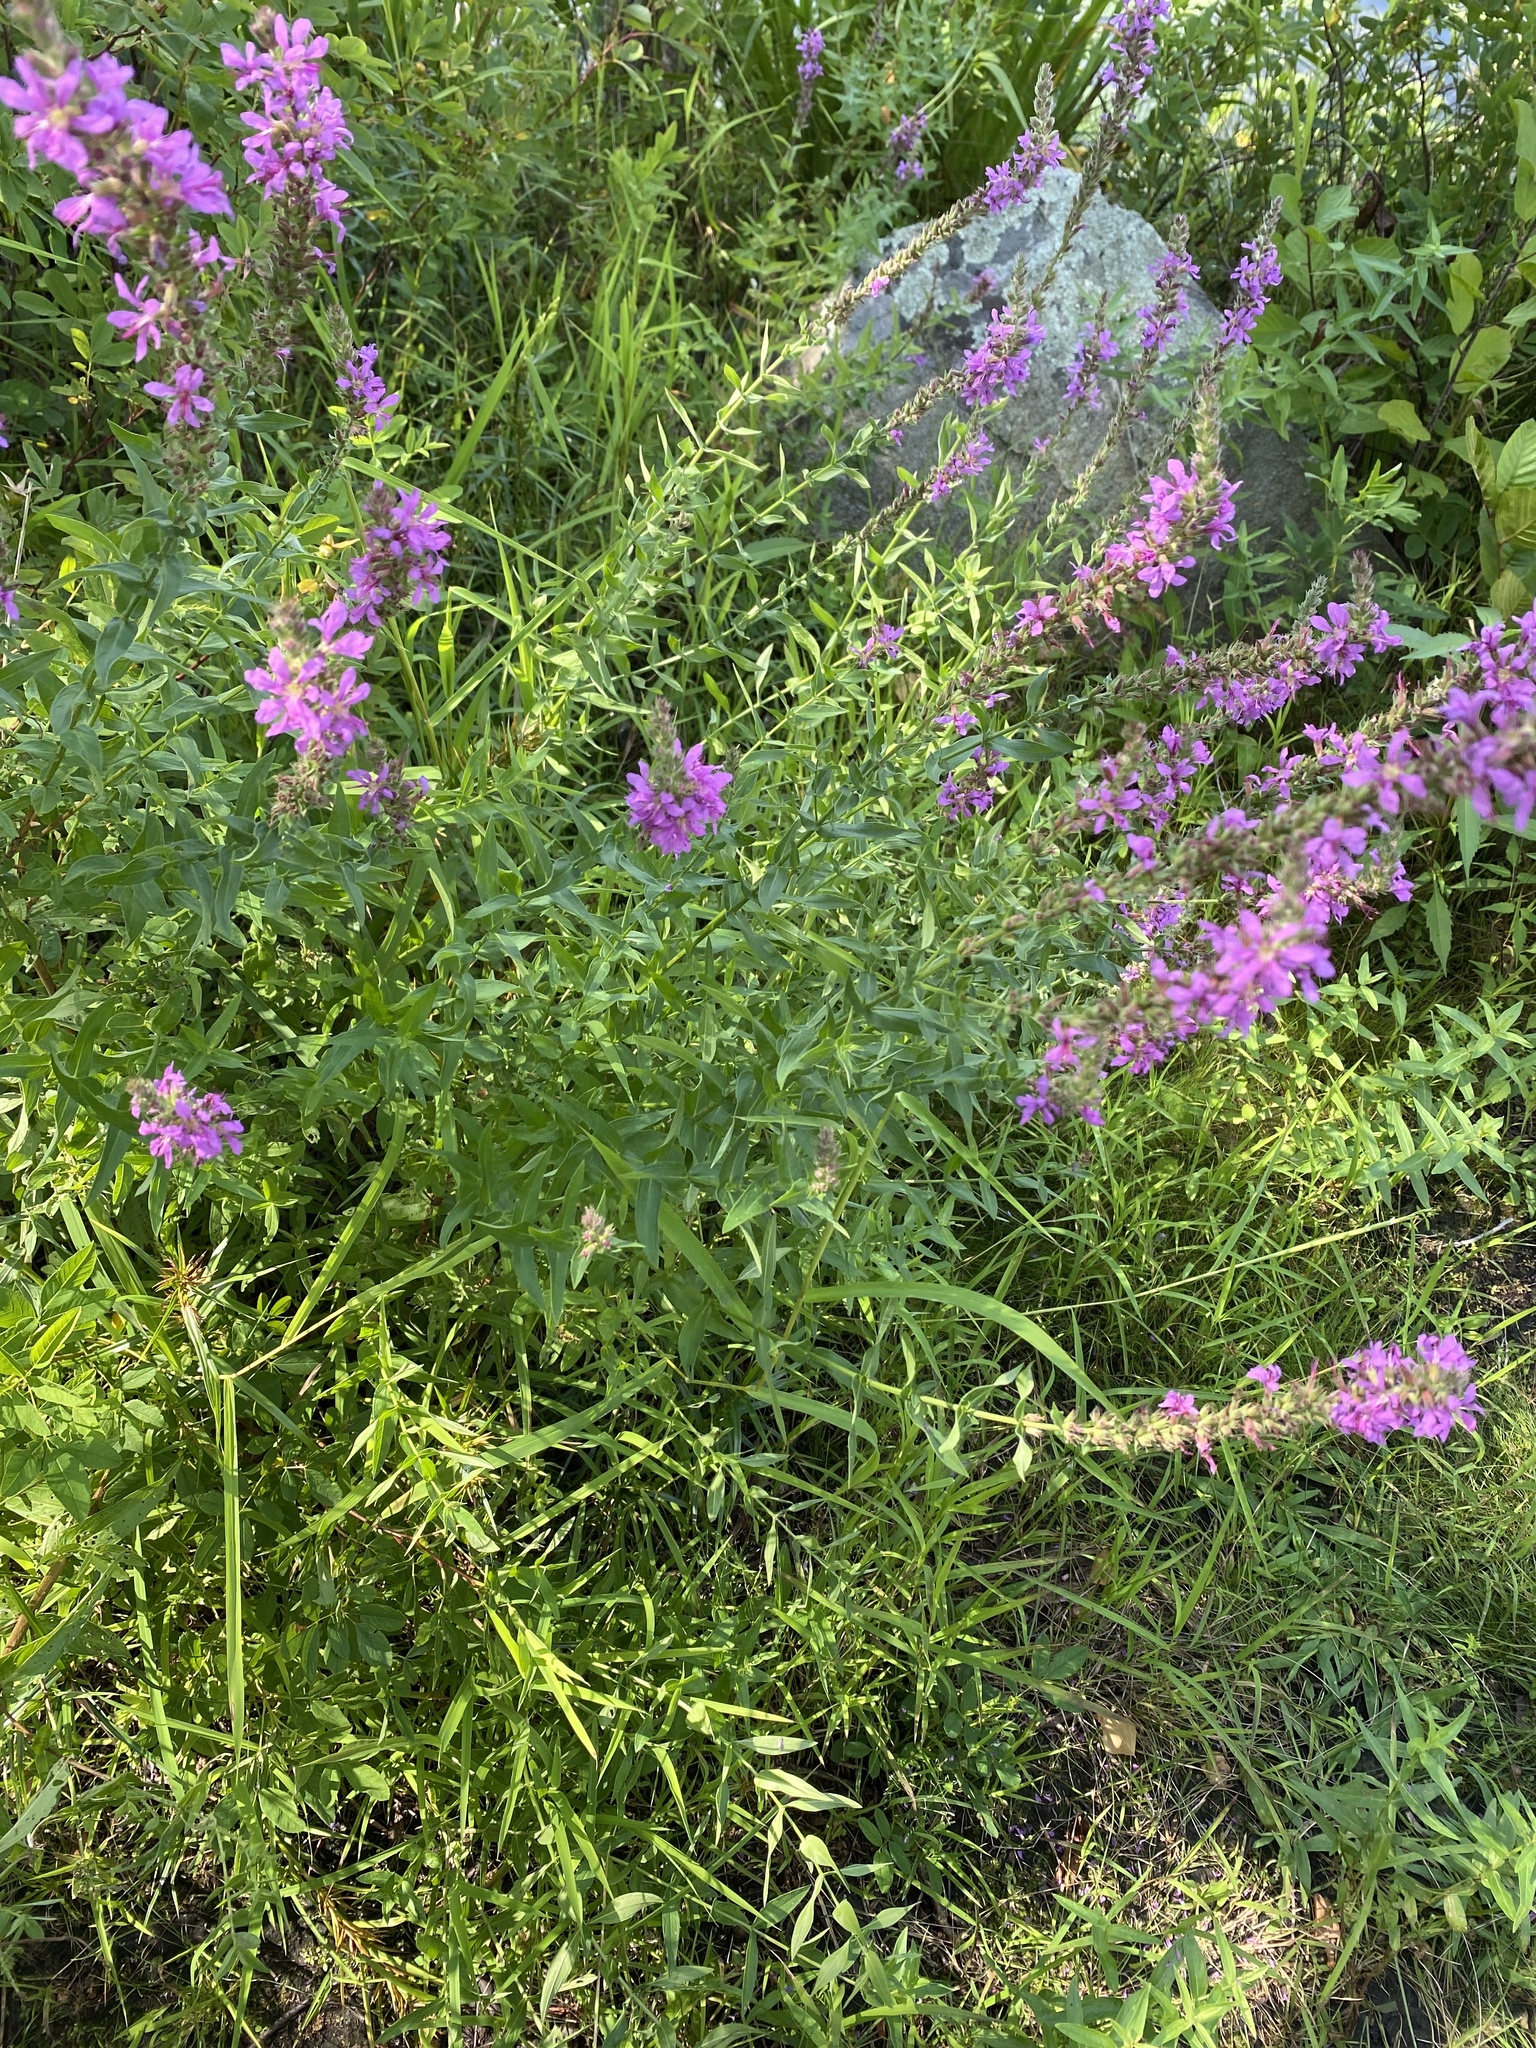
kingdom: Plantae
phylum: Tracheophyta
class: Magnoliopsida
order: Myrtales
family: Lythraceae
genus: Lythrum
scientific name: Lythrum salicaria
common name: Purple loosestrife
